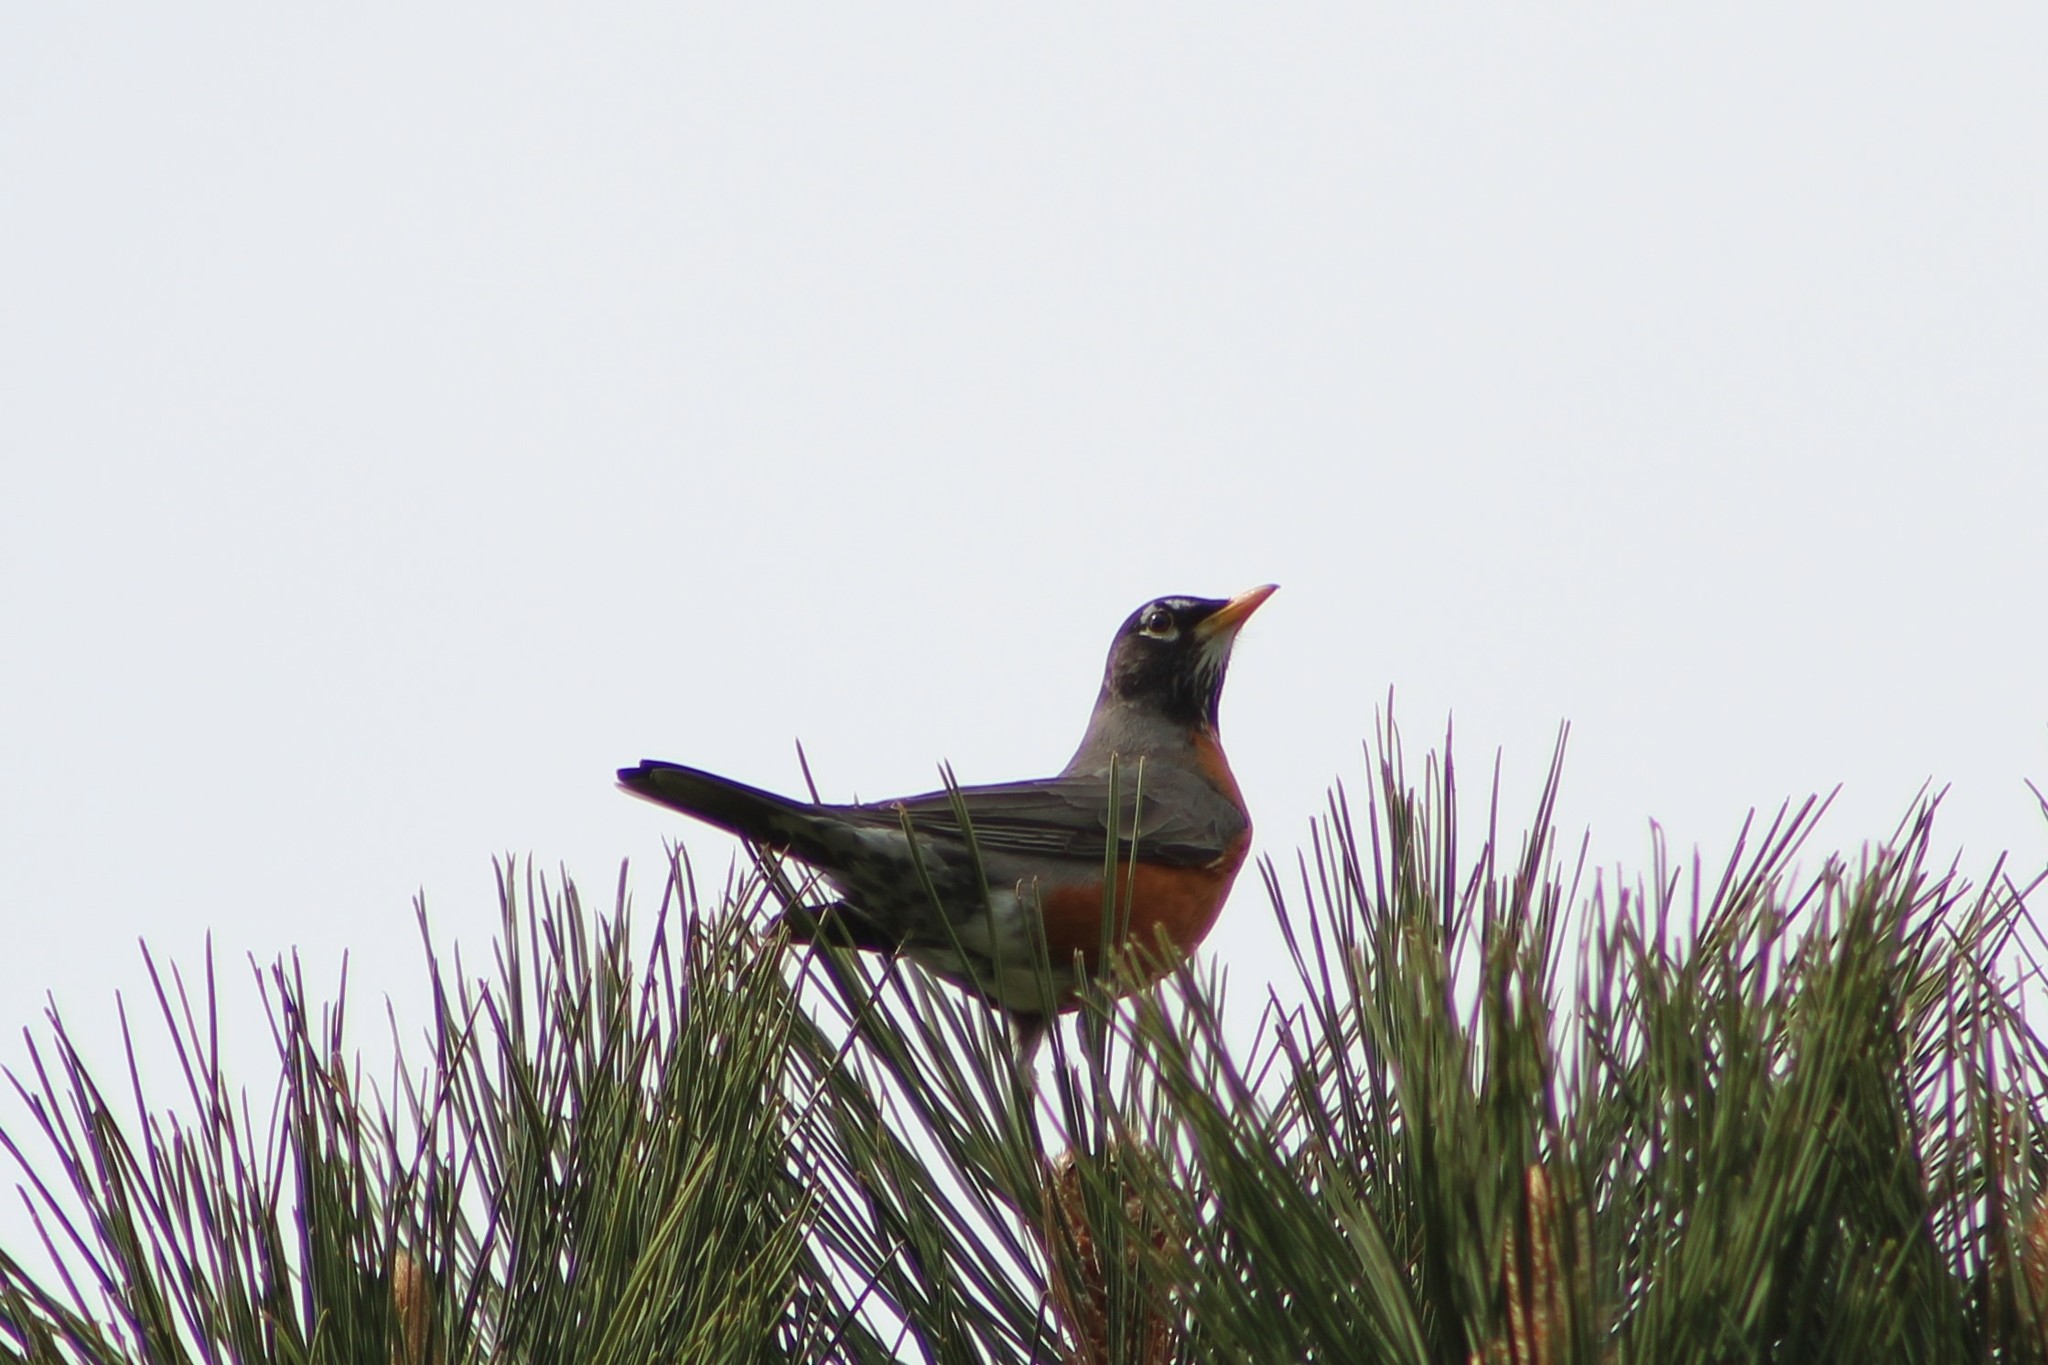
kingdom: Animalia
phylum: Chordata
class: Aves
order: Passeriformes
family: Turdidae
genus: Turdus
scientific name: Turdus migratorius
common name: American robin
